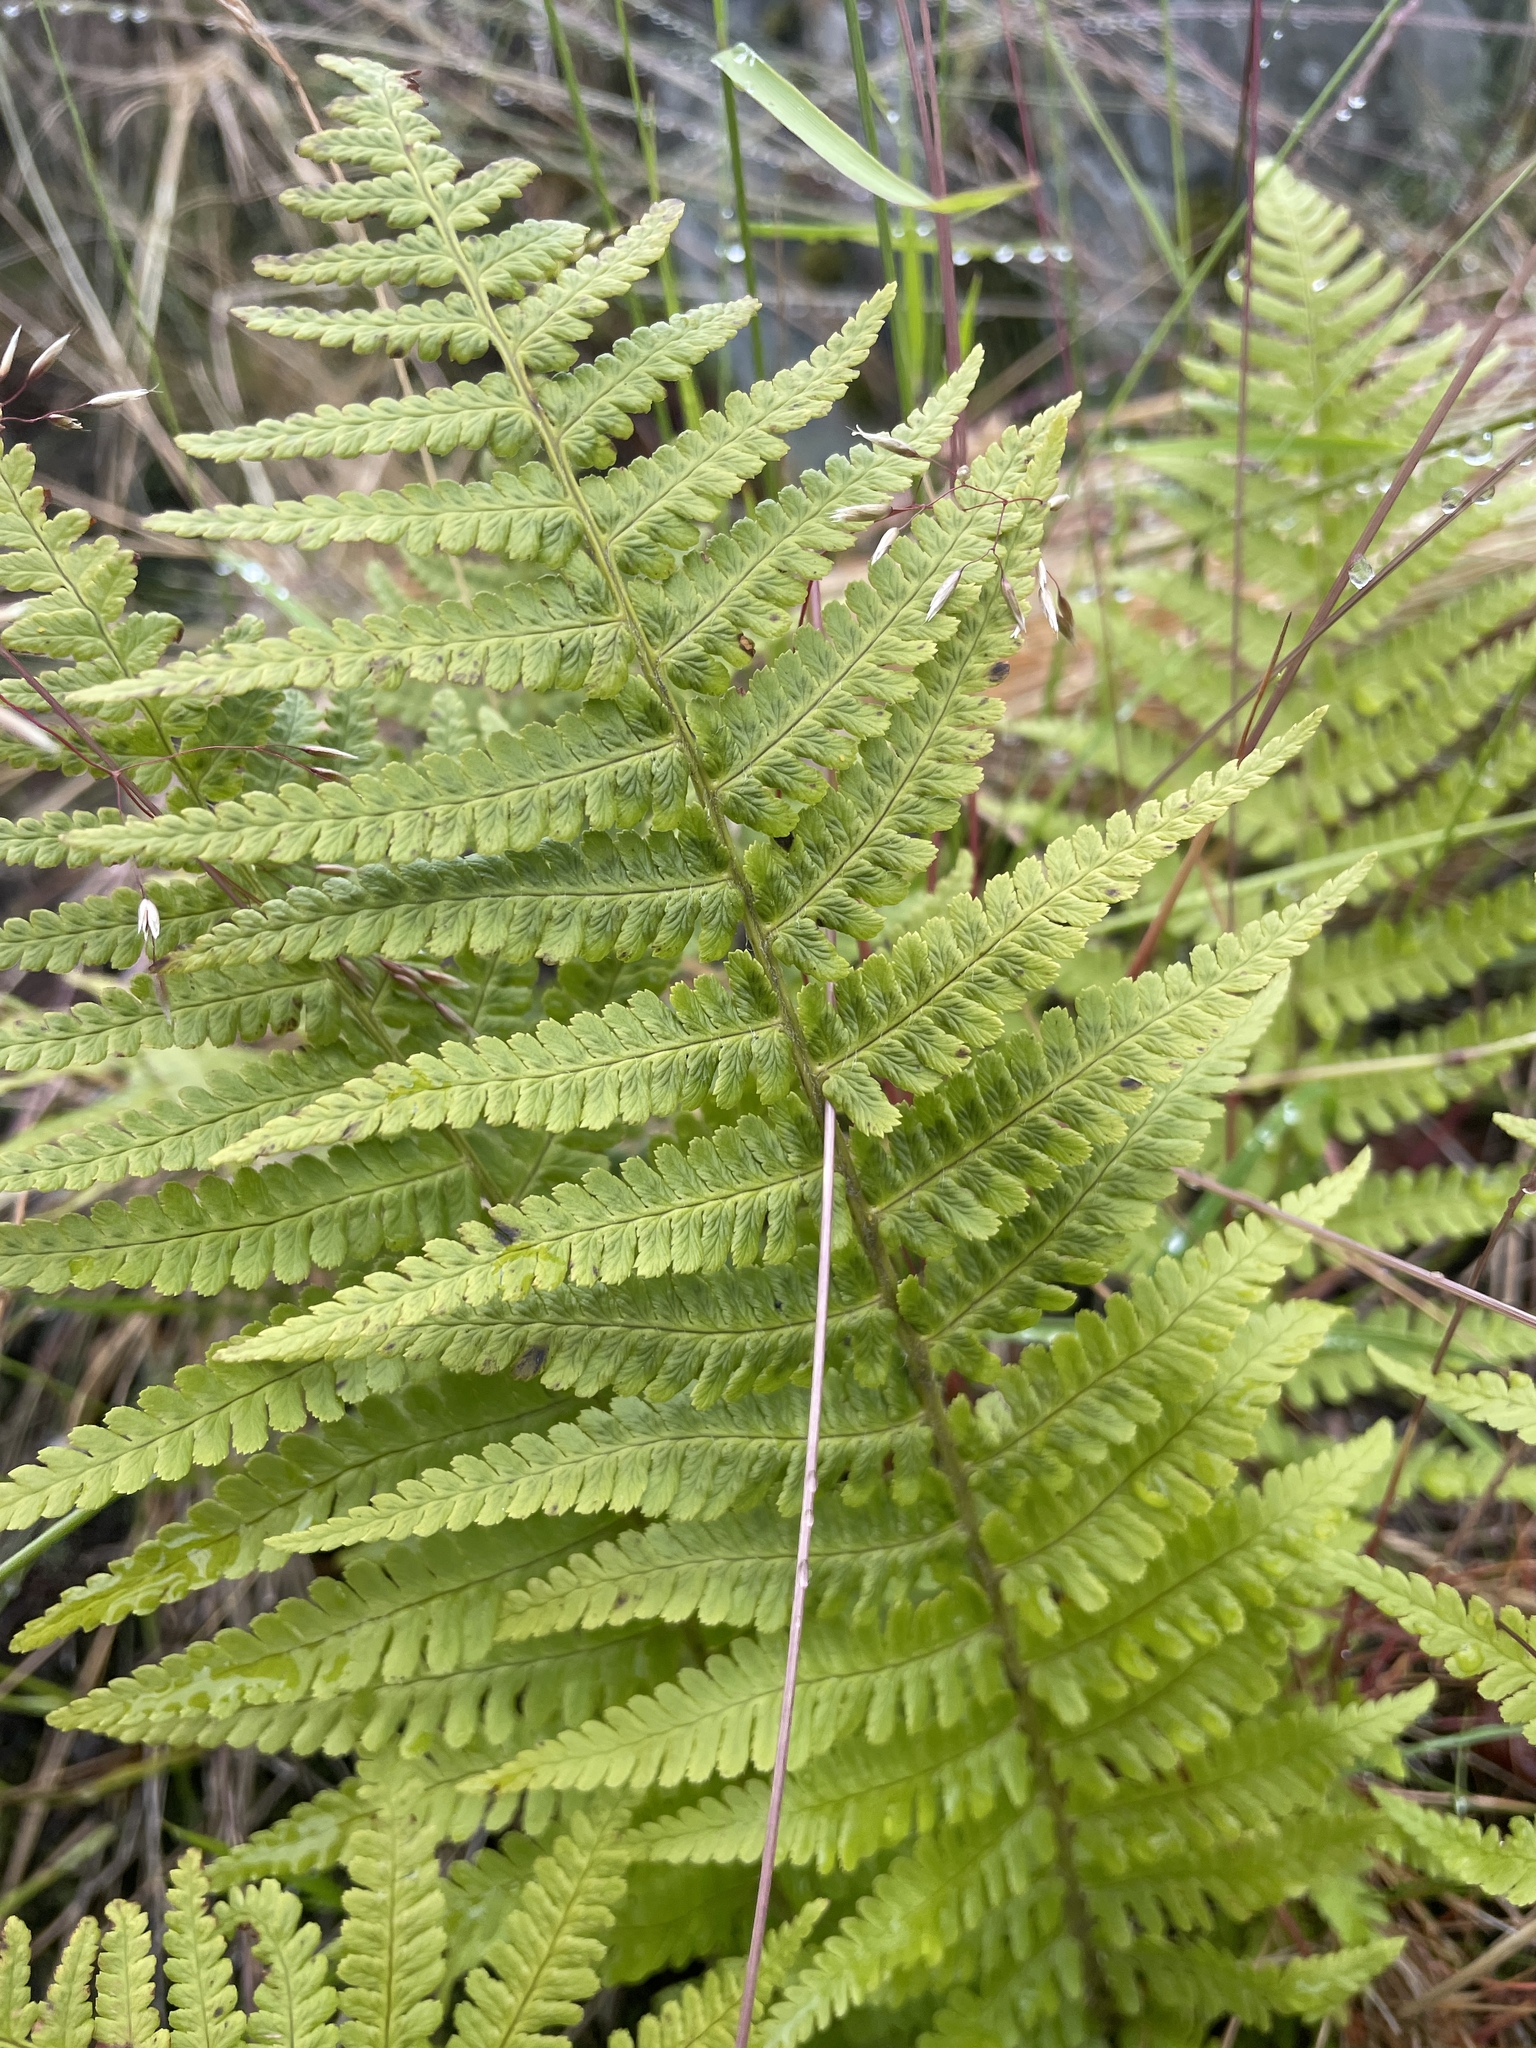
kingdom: Plantae
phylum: Tracheophyta
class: Polypodiopsida
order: Polypodiales
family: Dryopteridaceae
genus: Dryopteris
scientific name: Dryopteris filix-mas
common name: Male fern
